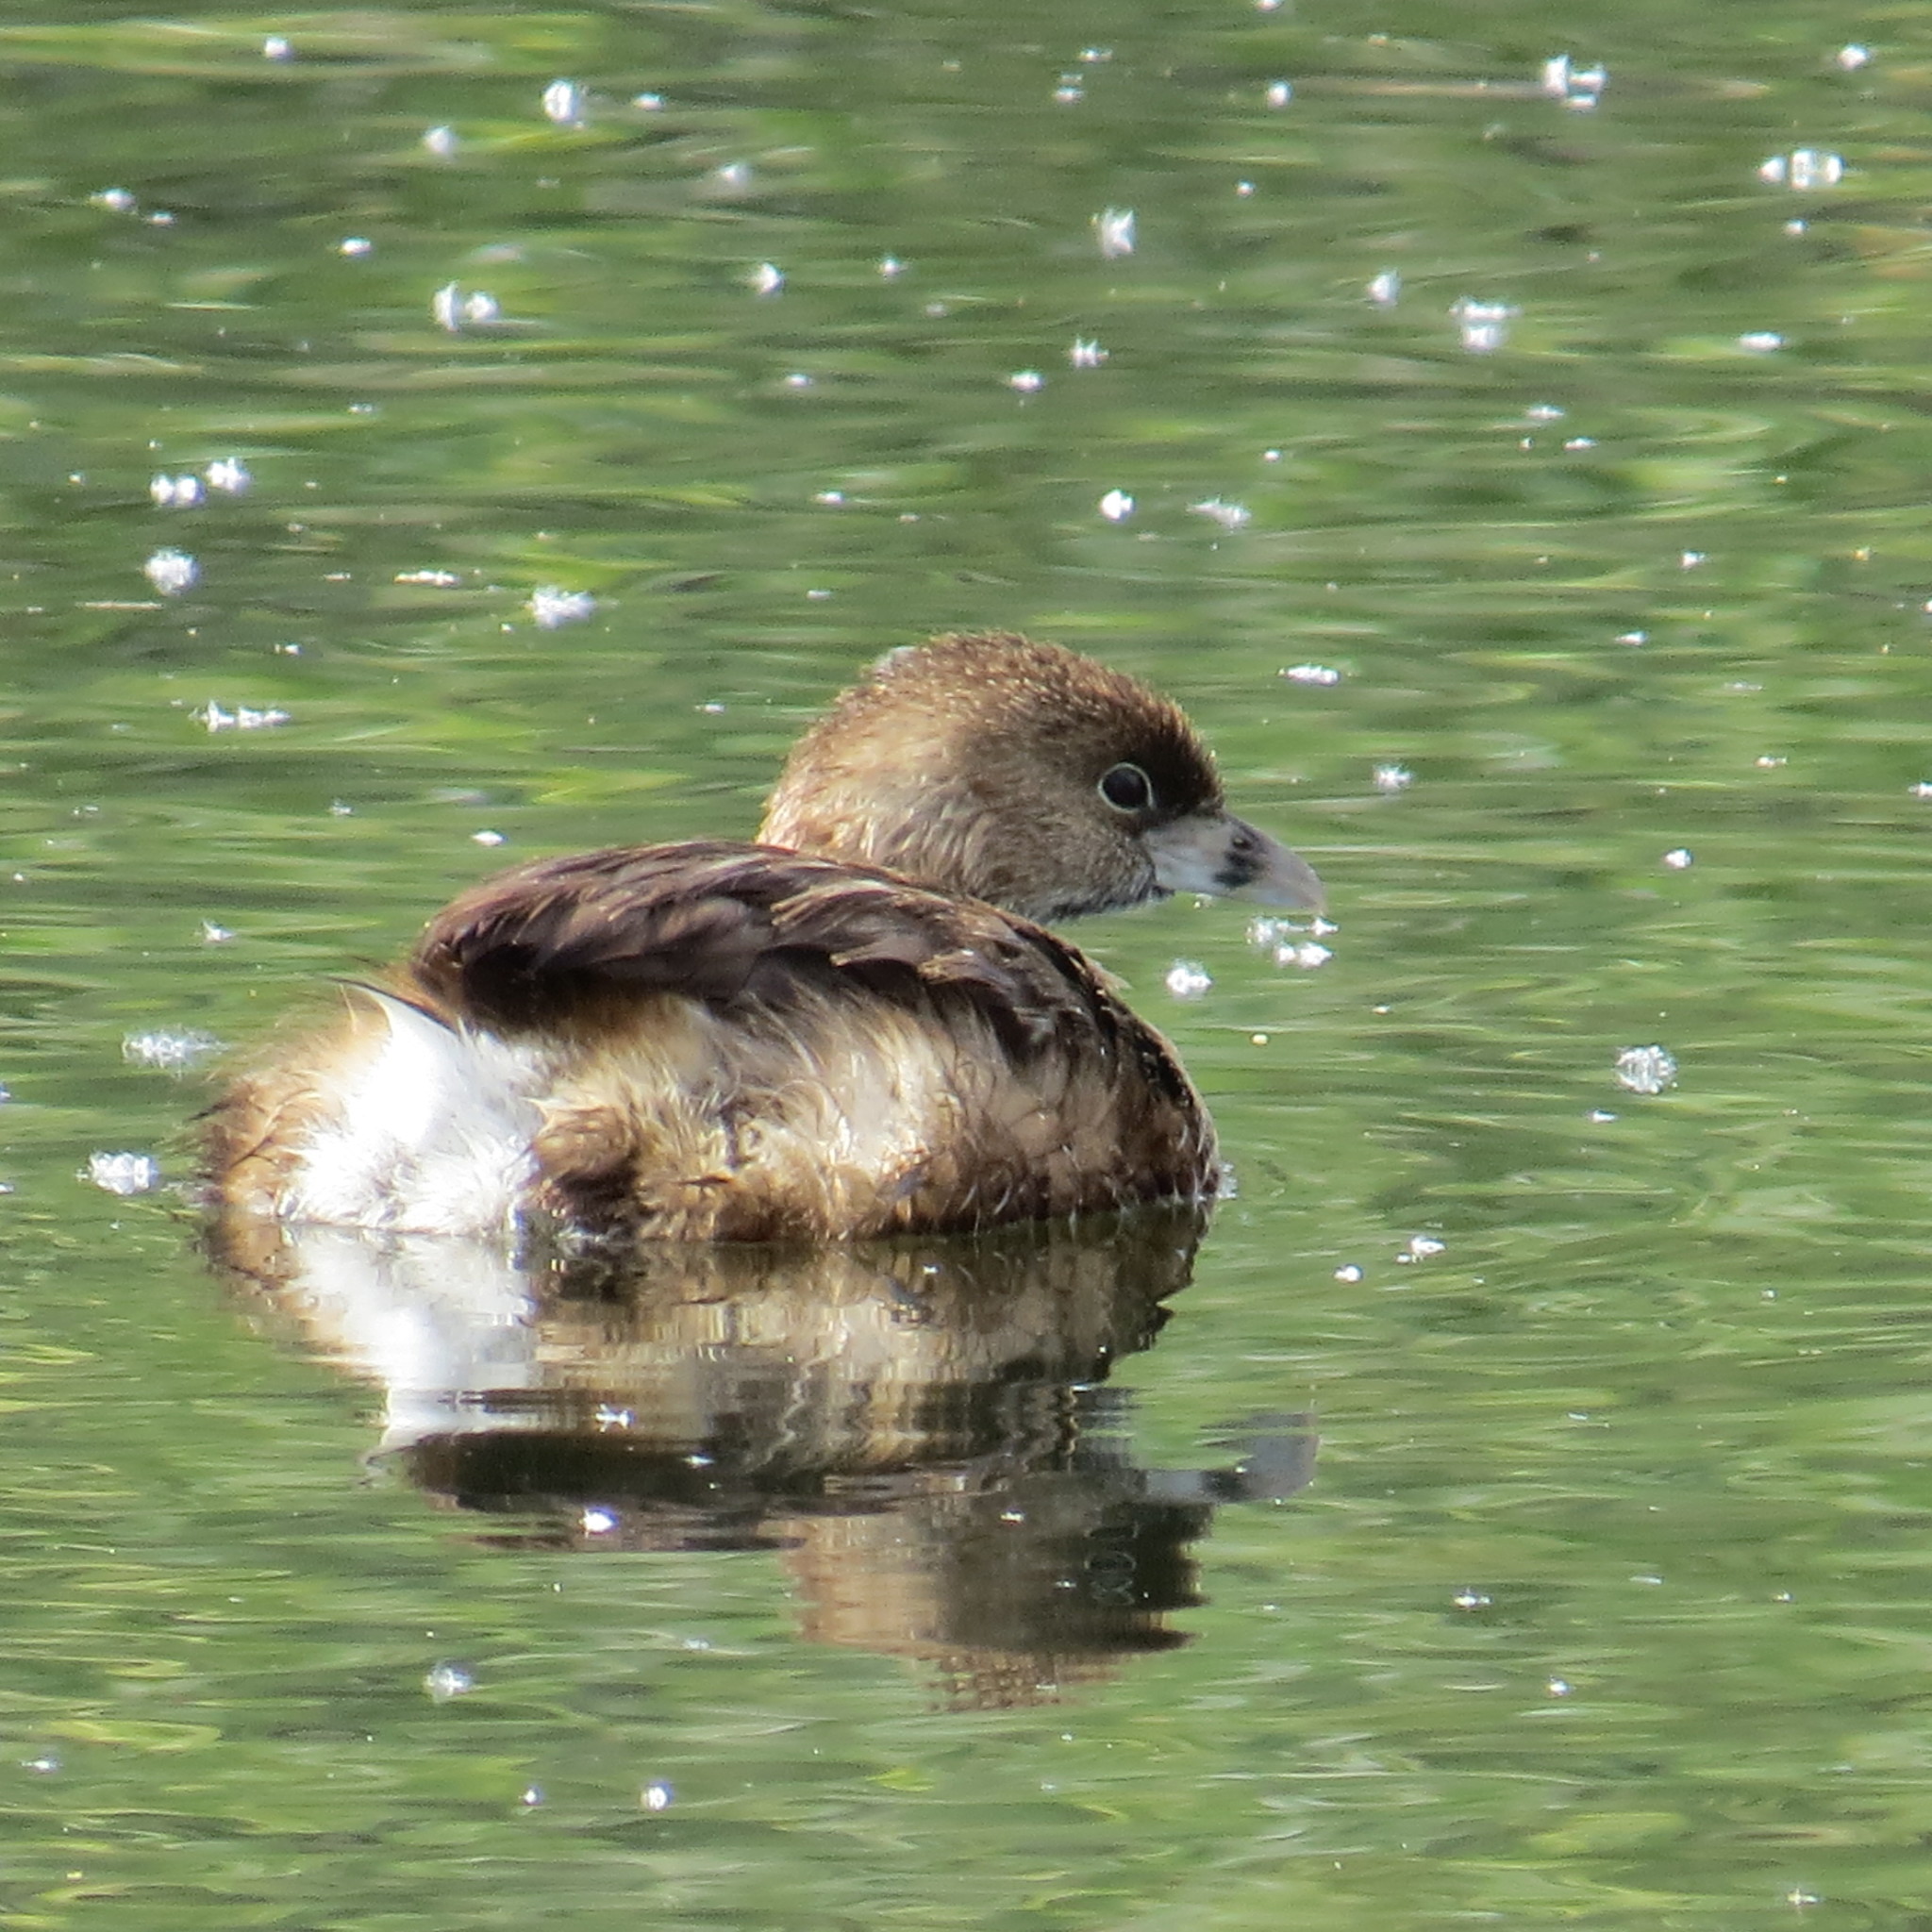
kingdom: Animalia
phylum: Chordata
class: Aves
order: Podicipediformes
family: Podicipedidae
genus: Podilymbus
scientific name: Podilymbus podiceps
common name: Pied-billed grebe
